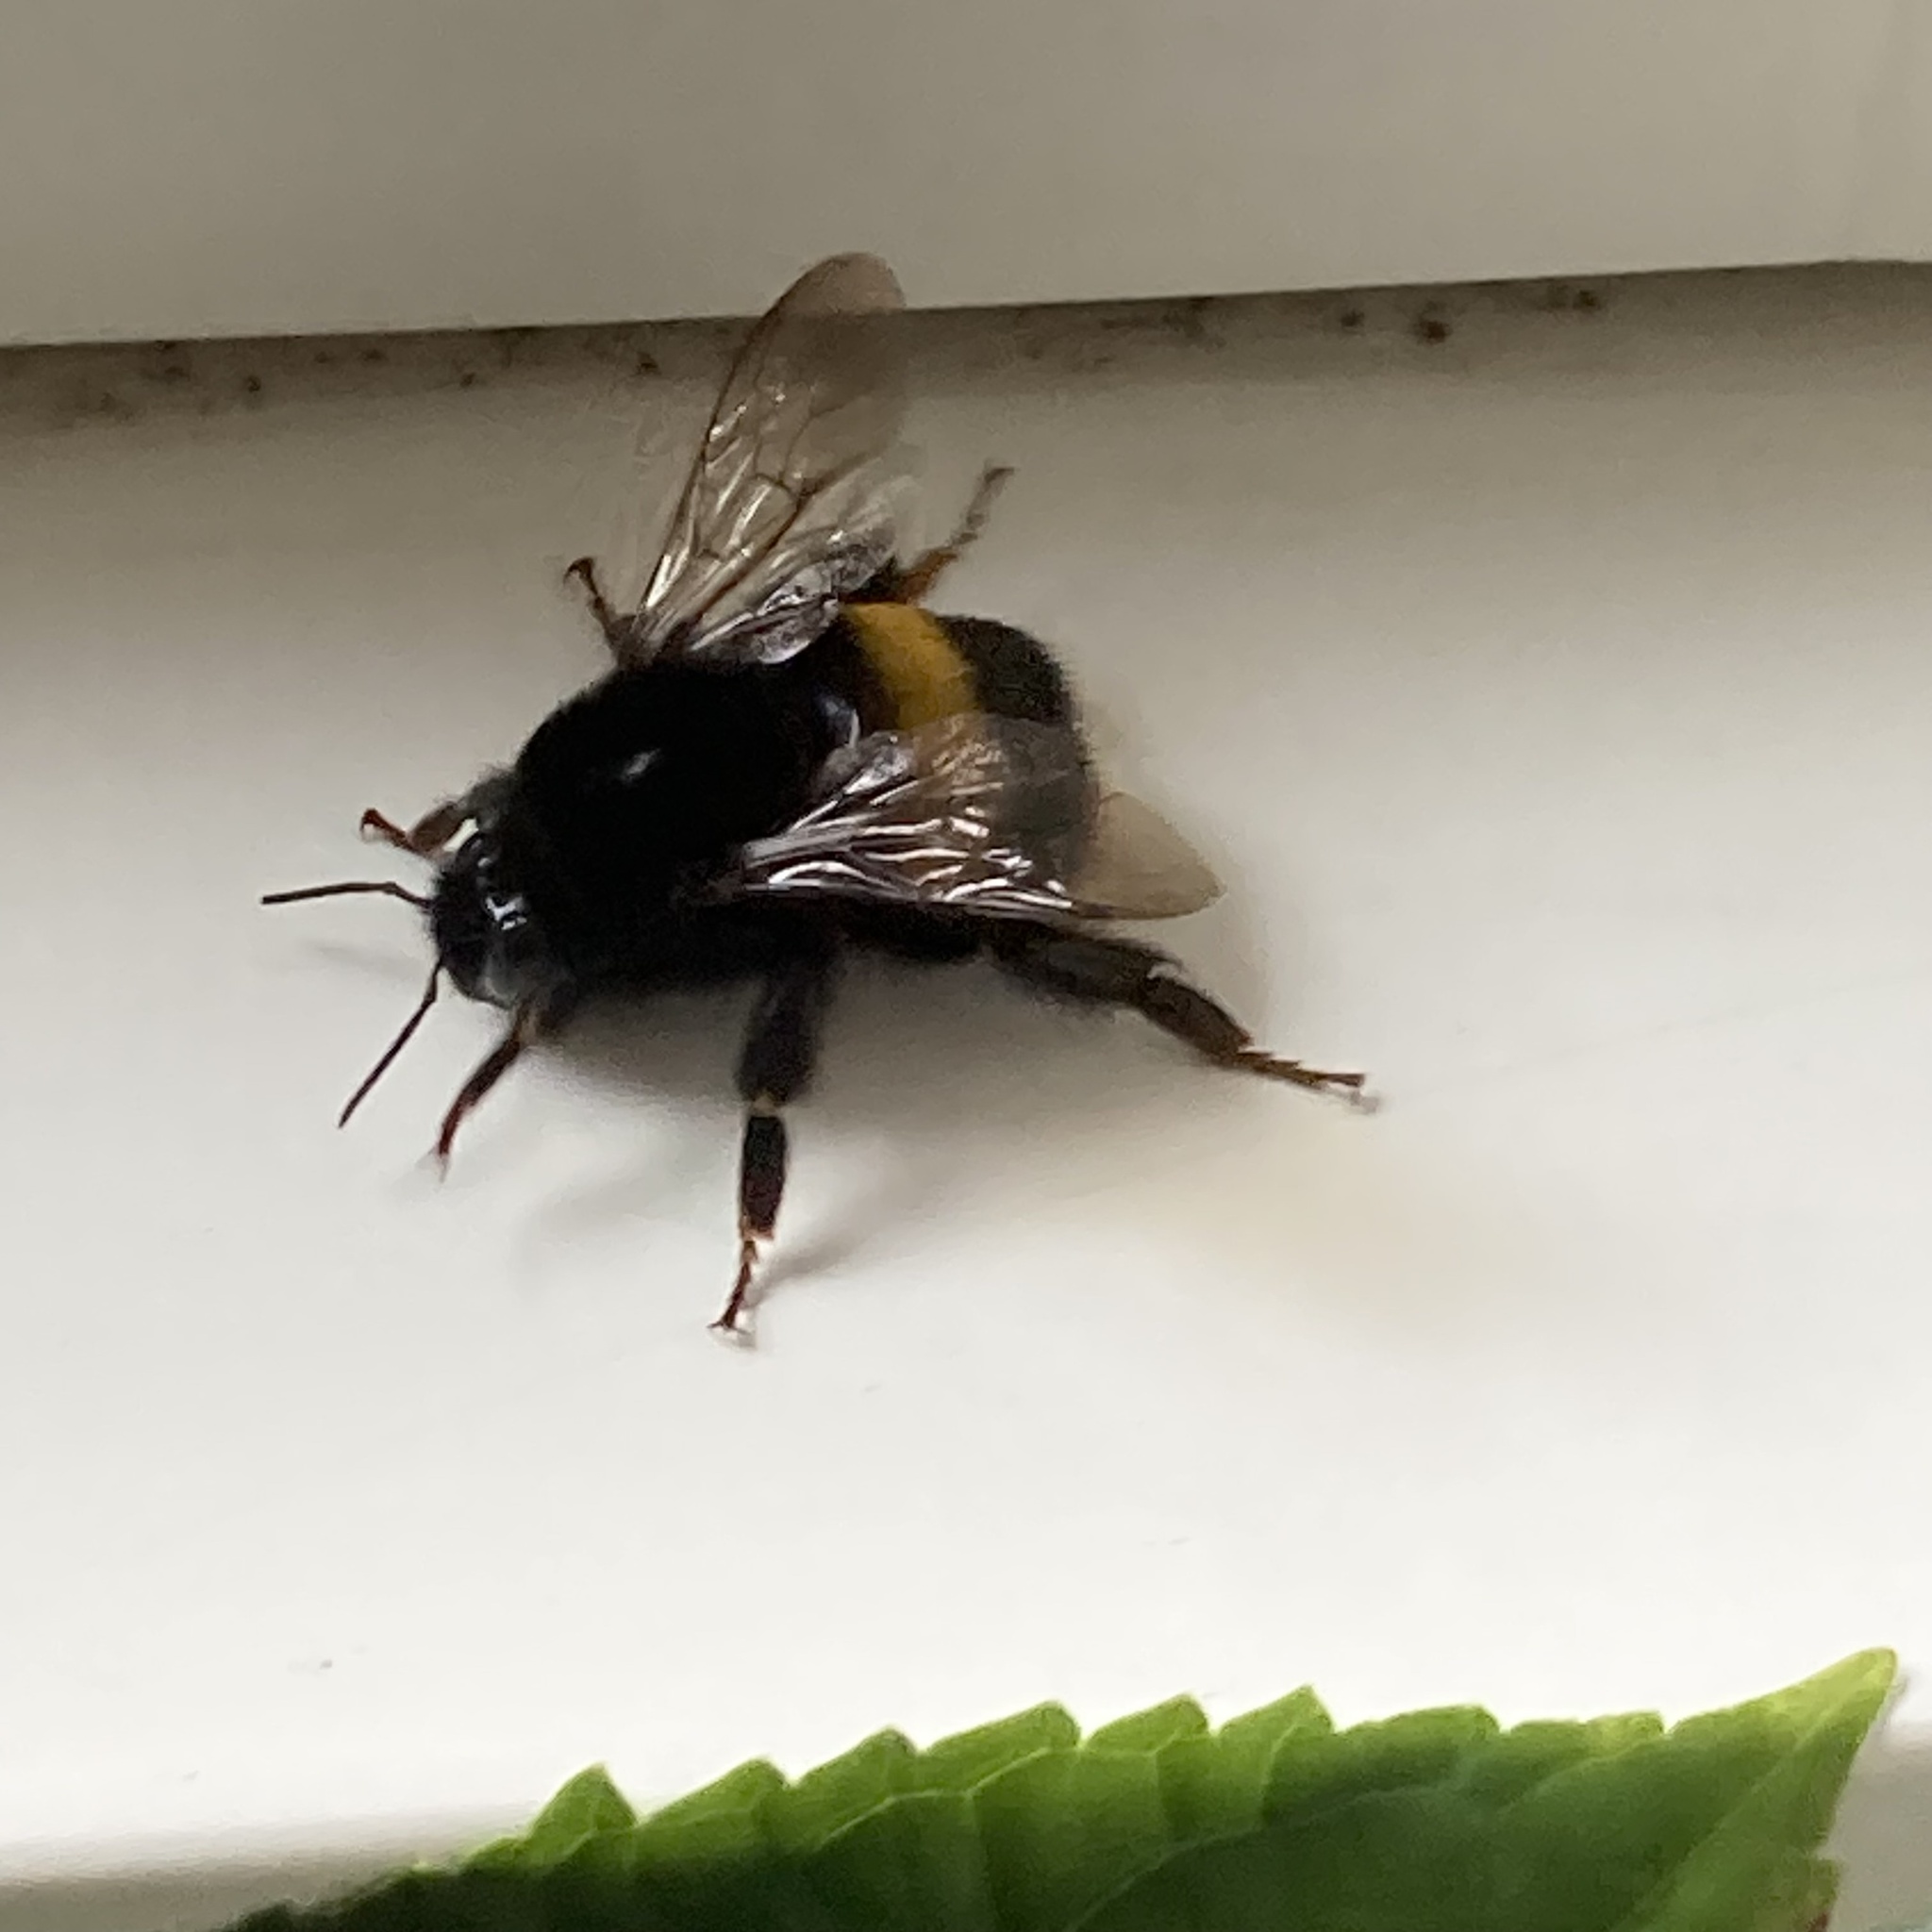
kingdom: Animalia
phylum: Arthropoda
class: Insecta
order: Hymenoptera
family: Apidae
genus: Bombus
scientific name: Bombus terrestris
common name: Buff-tailed bumblebee
